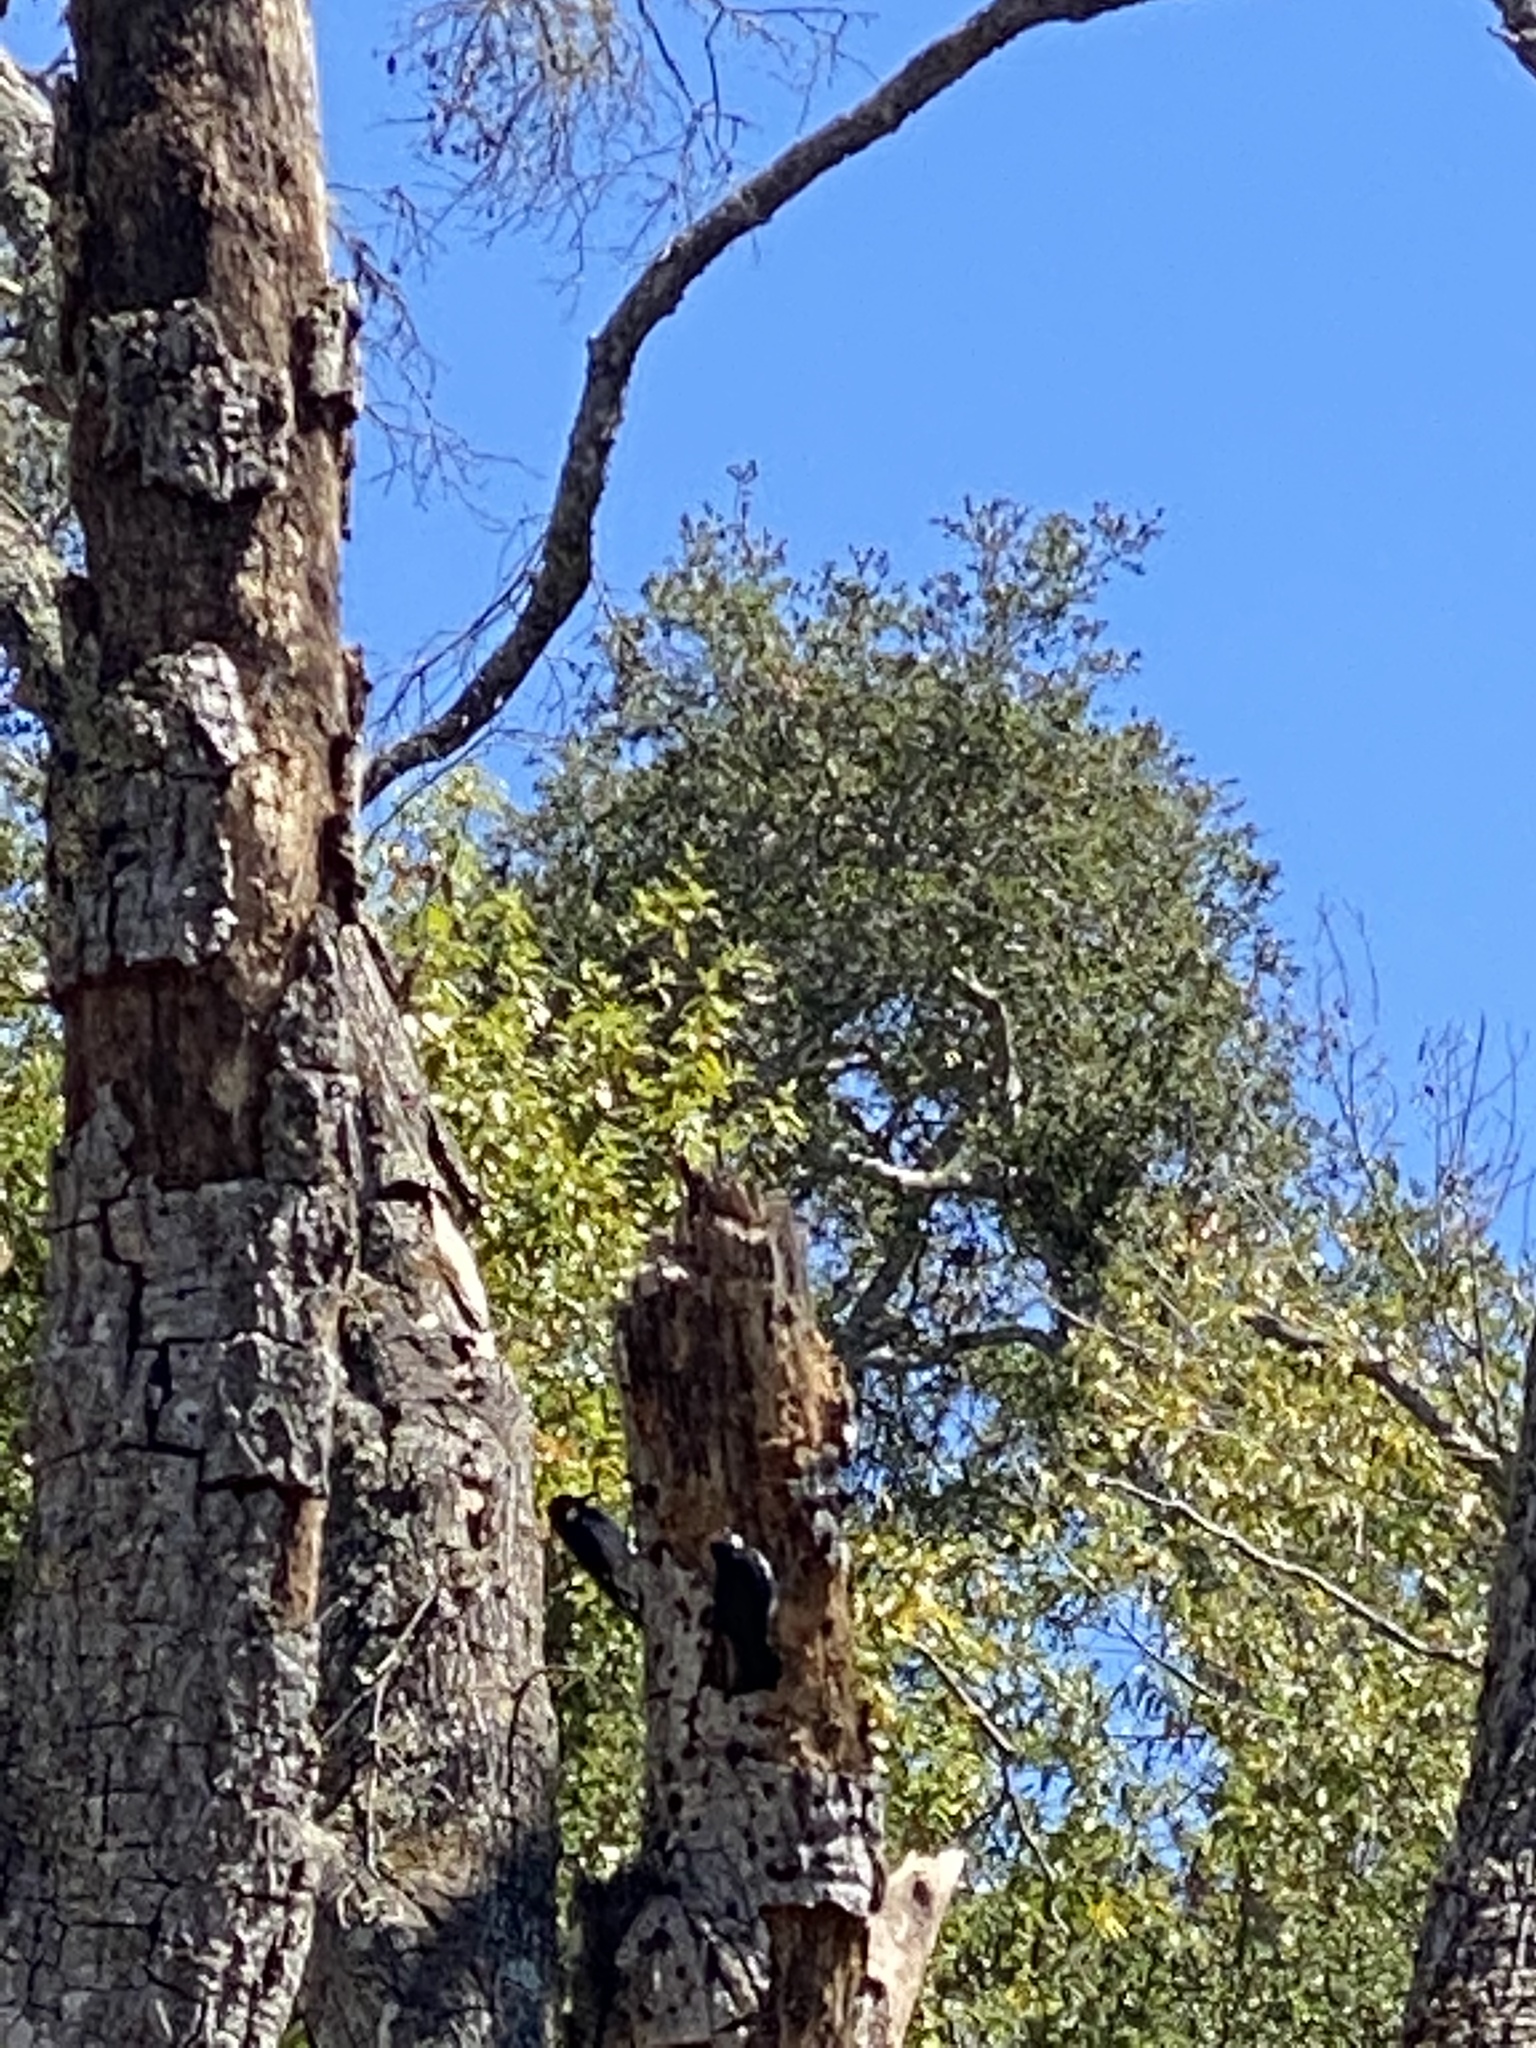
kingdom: Animalia
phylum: Chordata
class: Aves
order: Piciformes
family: Picidae
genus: Melanerpes
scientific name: Melanerpes formicivorus
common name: Acorn woodpecker
